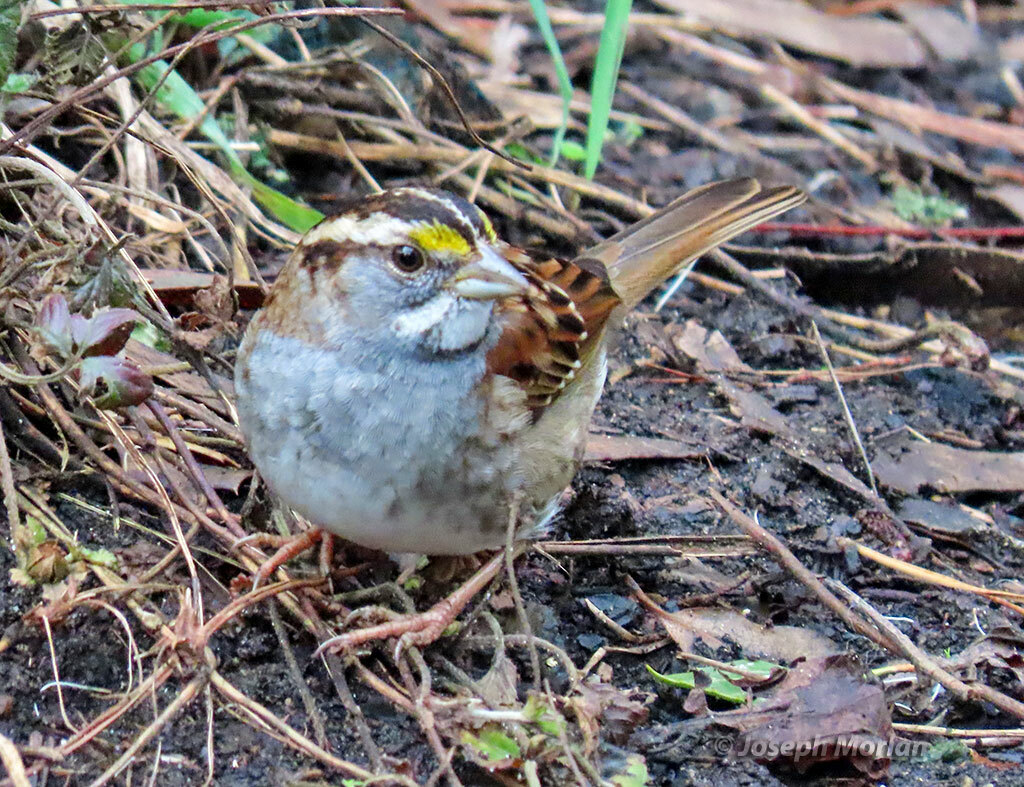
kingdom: Animalia
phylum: Chordata
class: Aves
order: Passeriformes
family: Passerellidae
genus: Zonotrichia
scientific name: Zonotrichia albicollis
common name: White-throated sparrow
